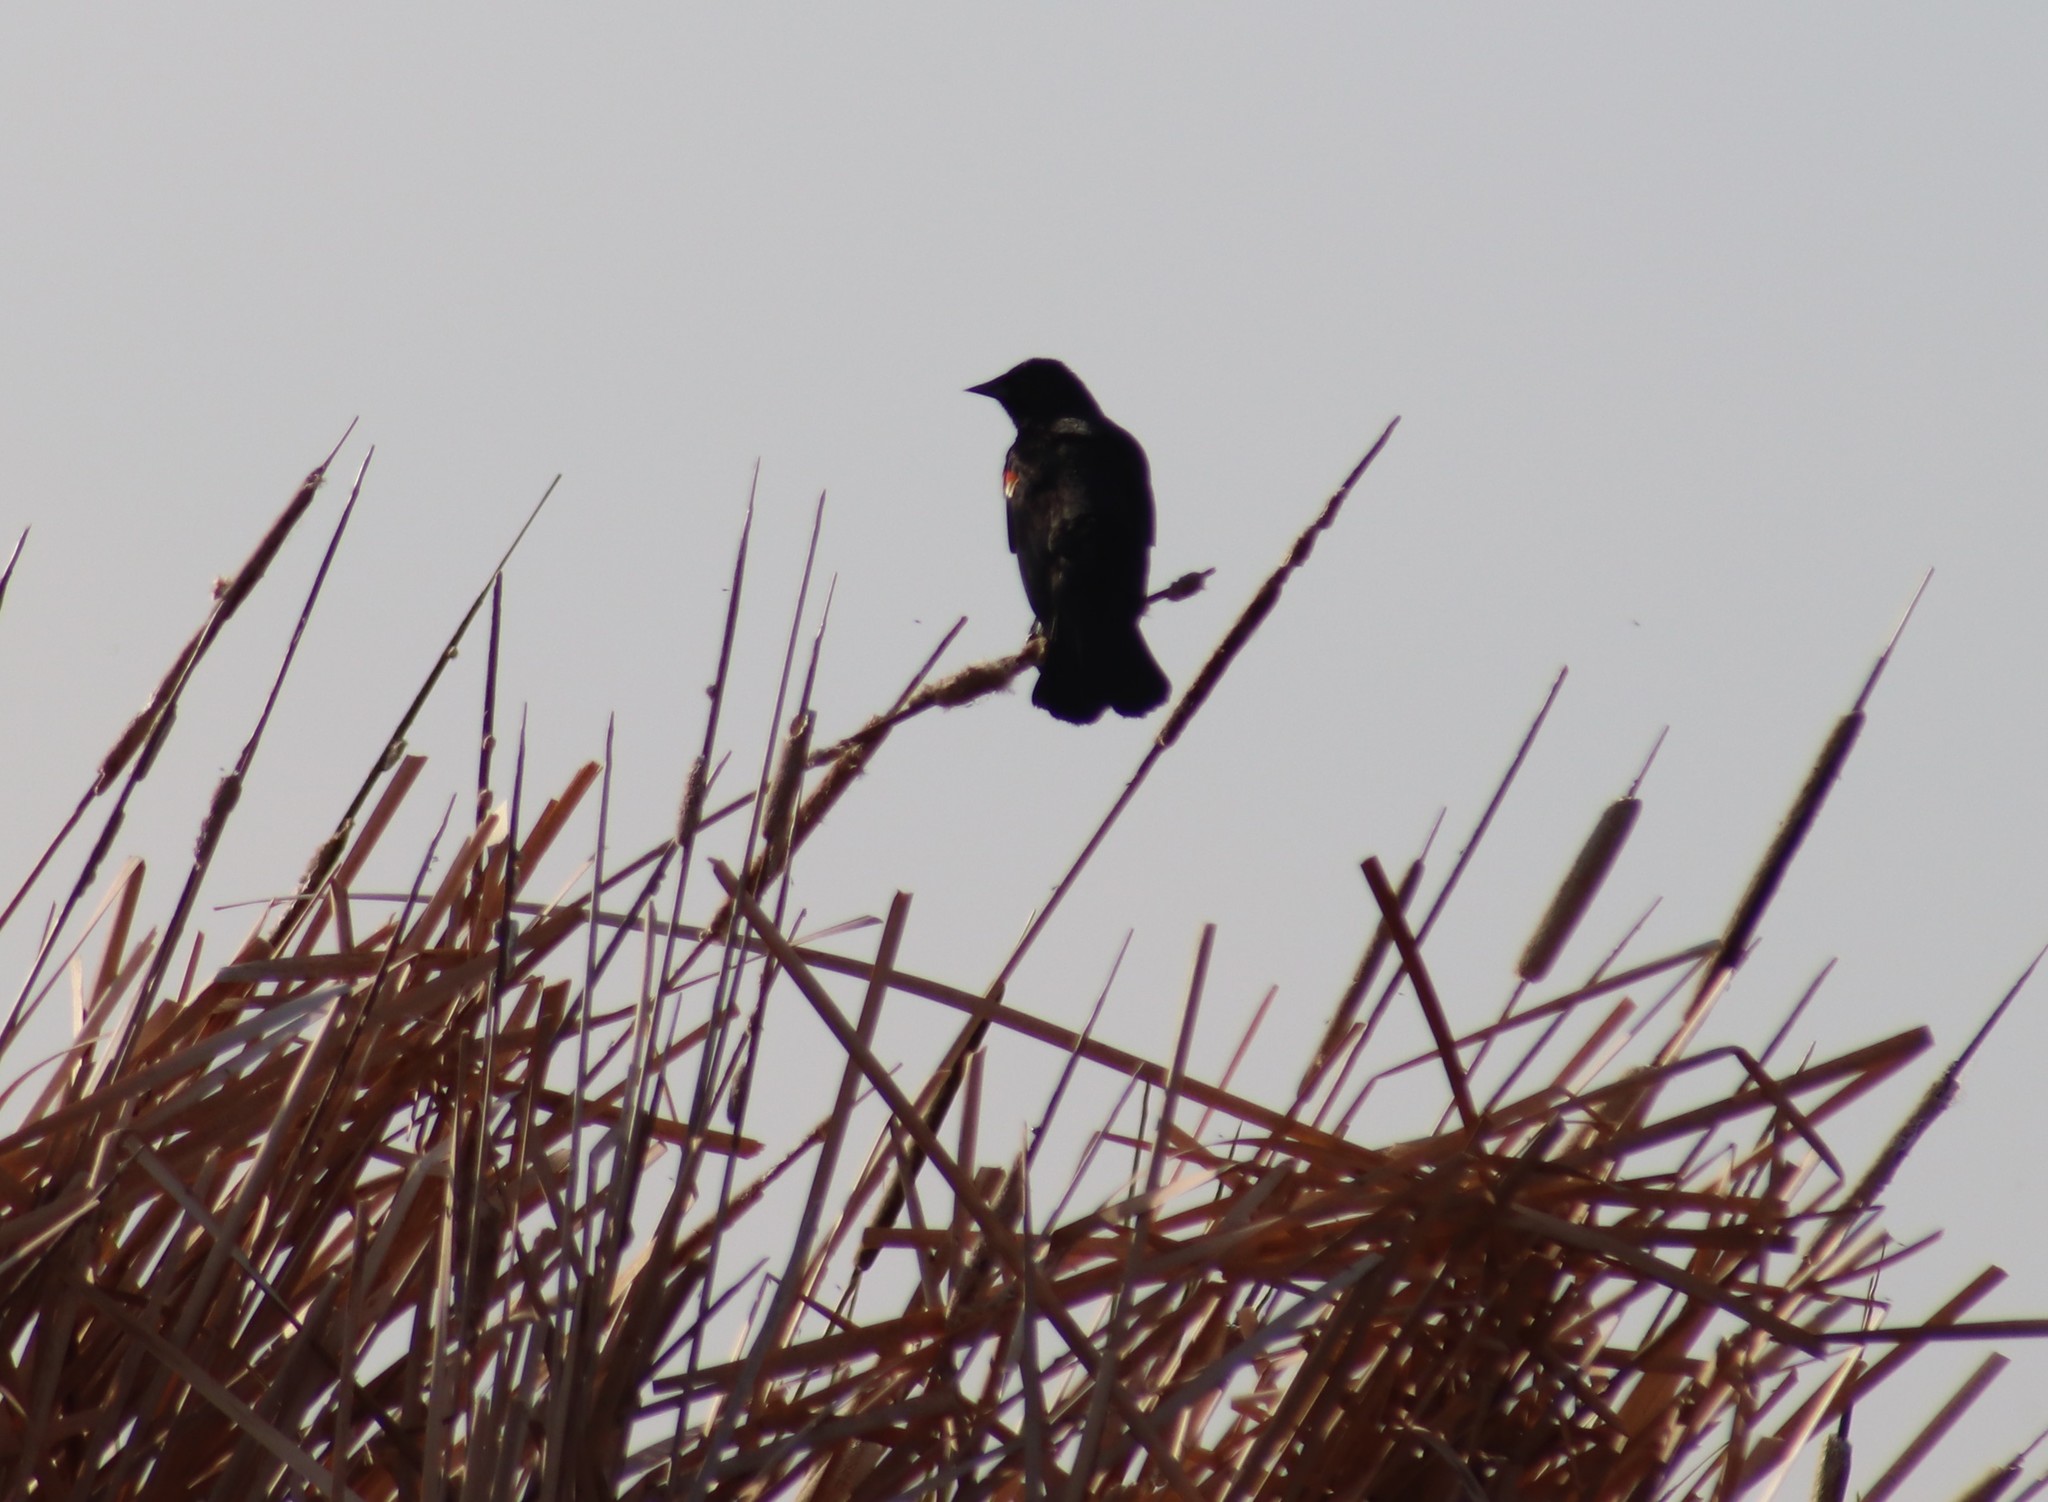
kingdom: Animalia
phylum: Chordata
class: Aves
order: Passeriformes
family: Icteridae
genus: Agelaius
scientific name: Agelaius phoeniceus
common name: Red-winged blackbird
